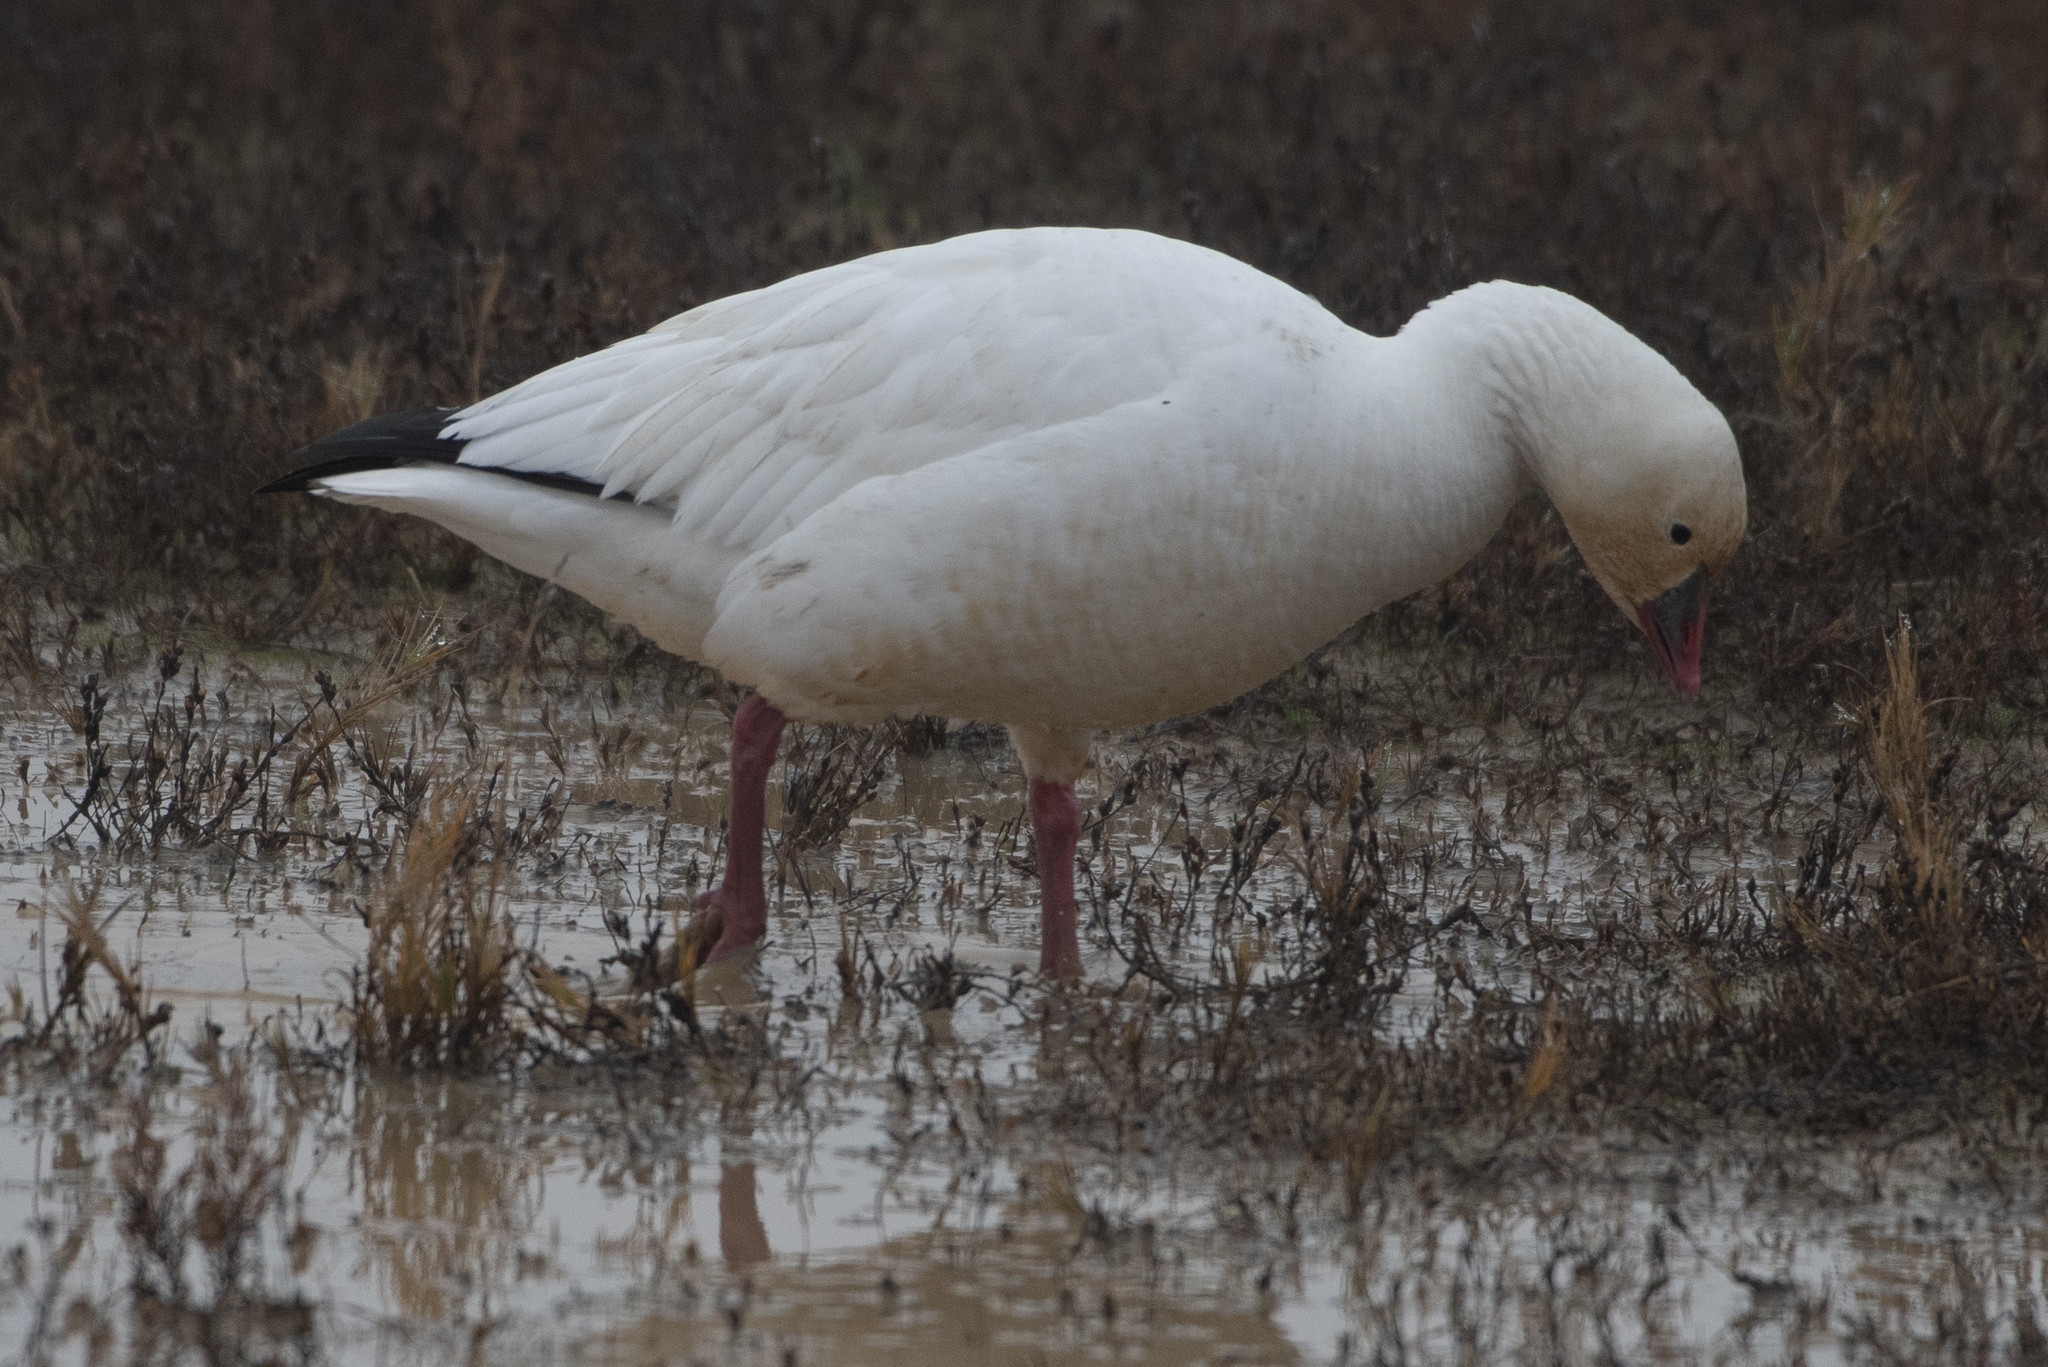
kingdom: Animalia
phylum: Chordata
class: Aves
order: Anseriformes
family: Anatidae
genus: Anser
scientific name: Anser rossii
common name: Ross's goose
